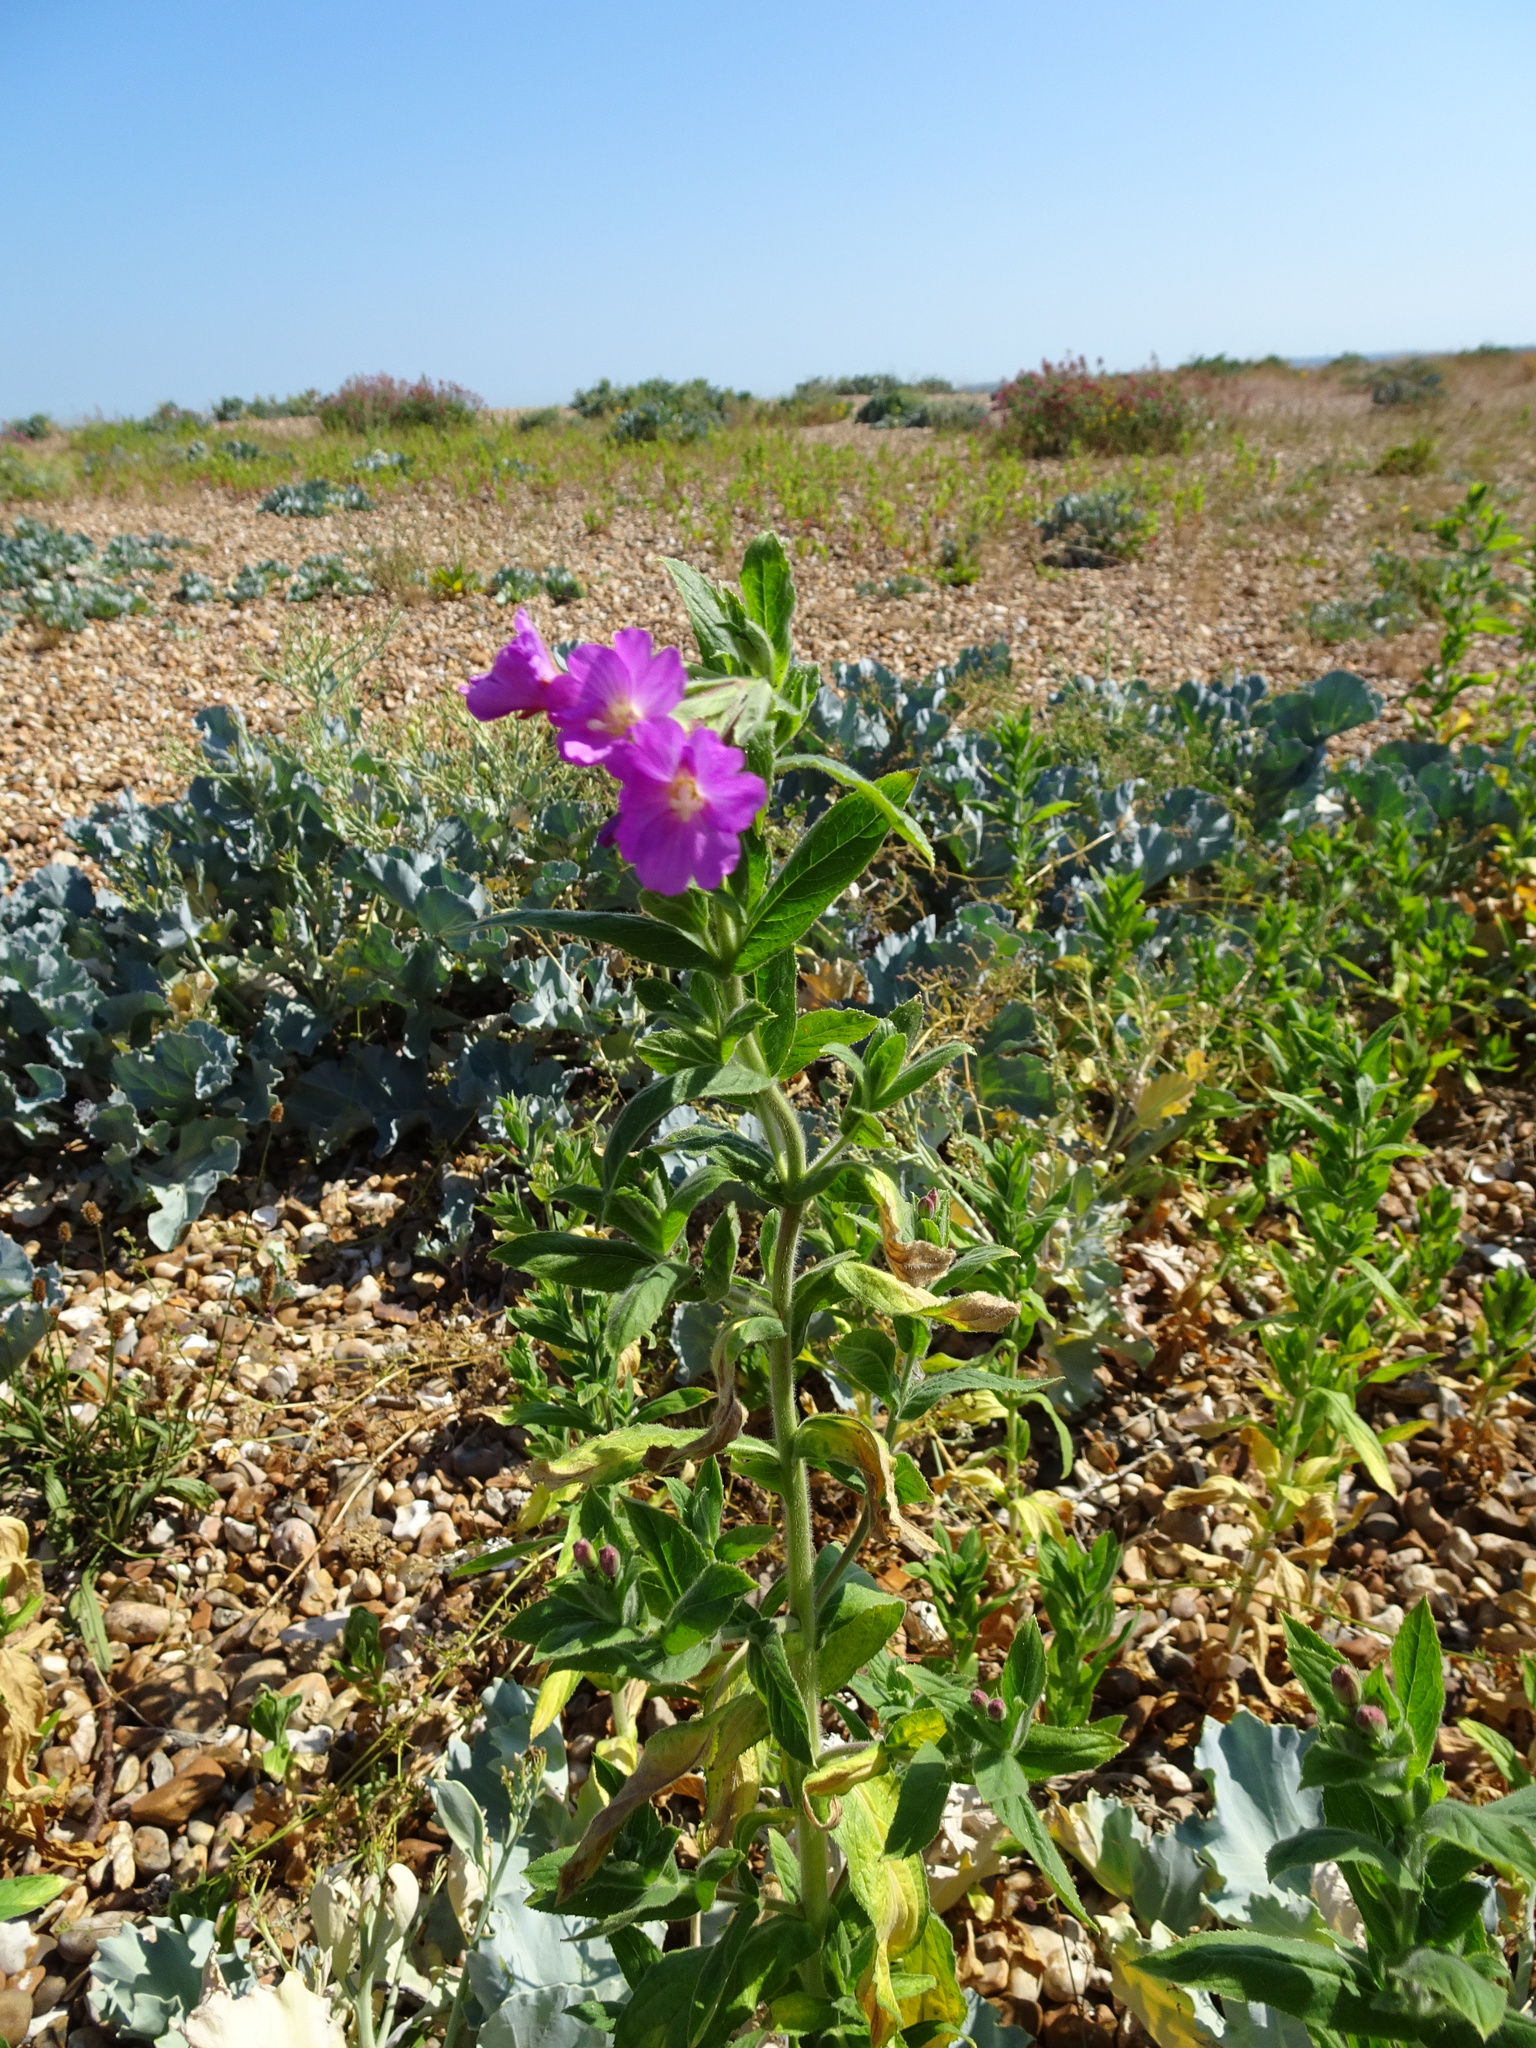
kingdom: Plantae
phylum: Tracheophyta
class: Magnoliopsida
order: Myrtales
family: Onagraceae
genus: Epilobium
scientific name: Epilobium hirsutum
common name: Great willowherb
